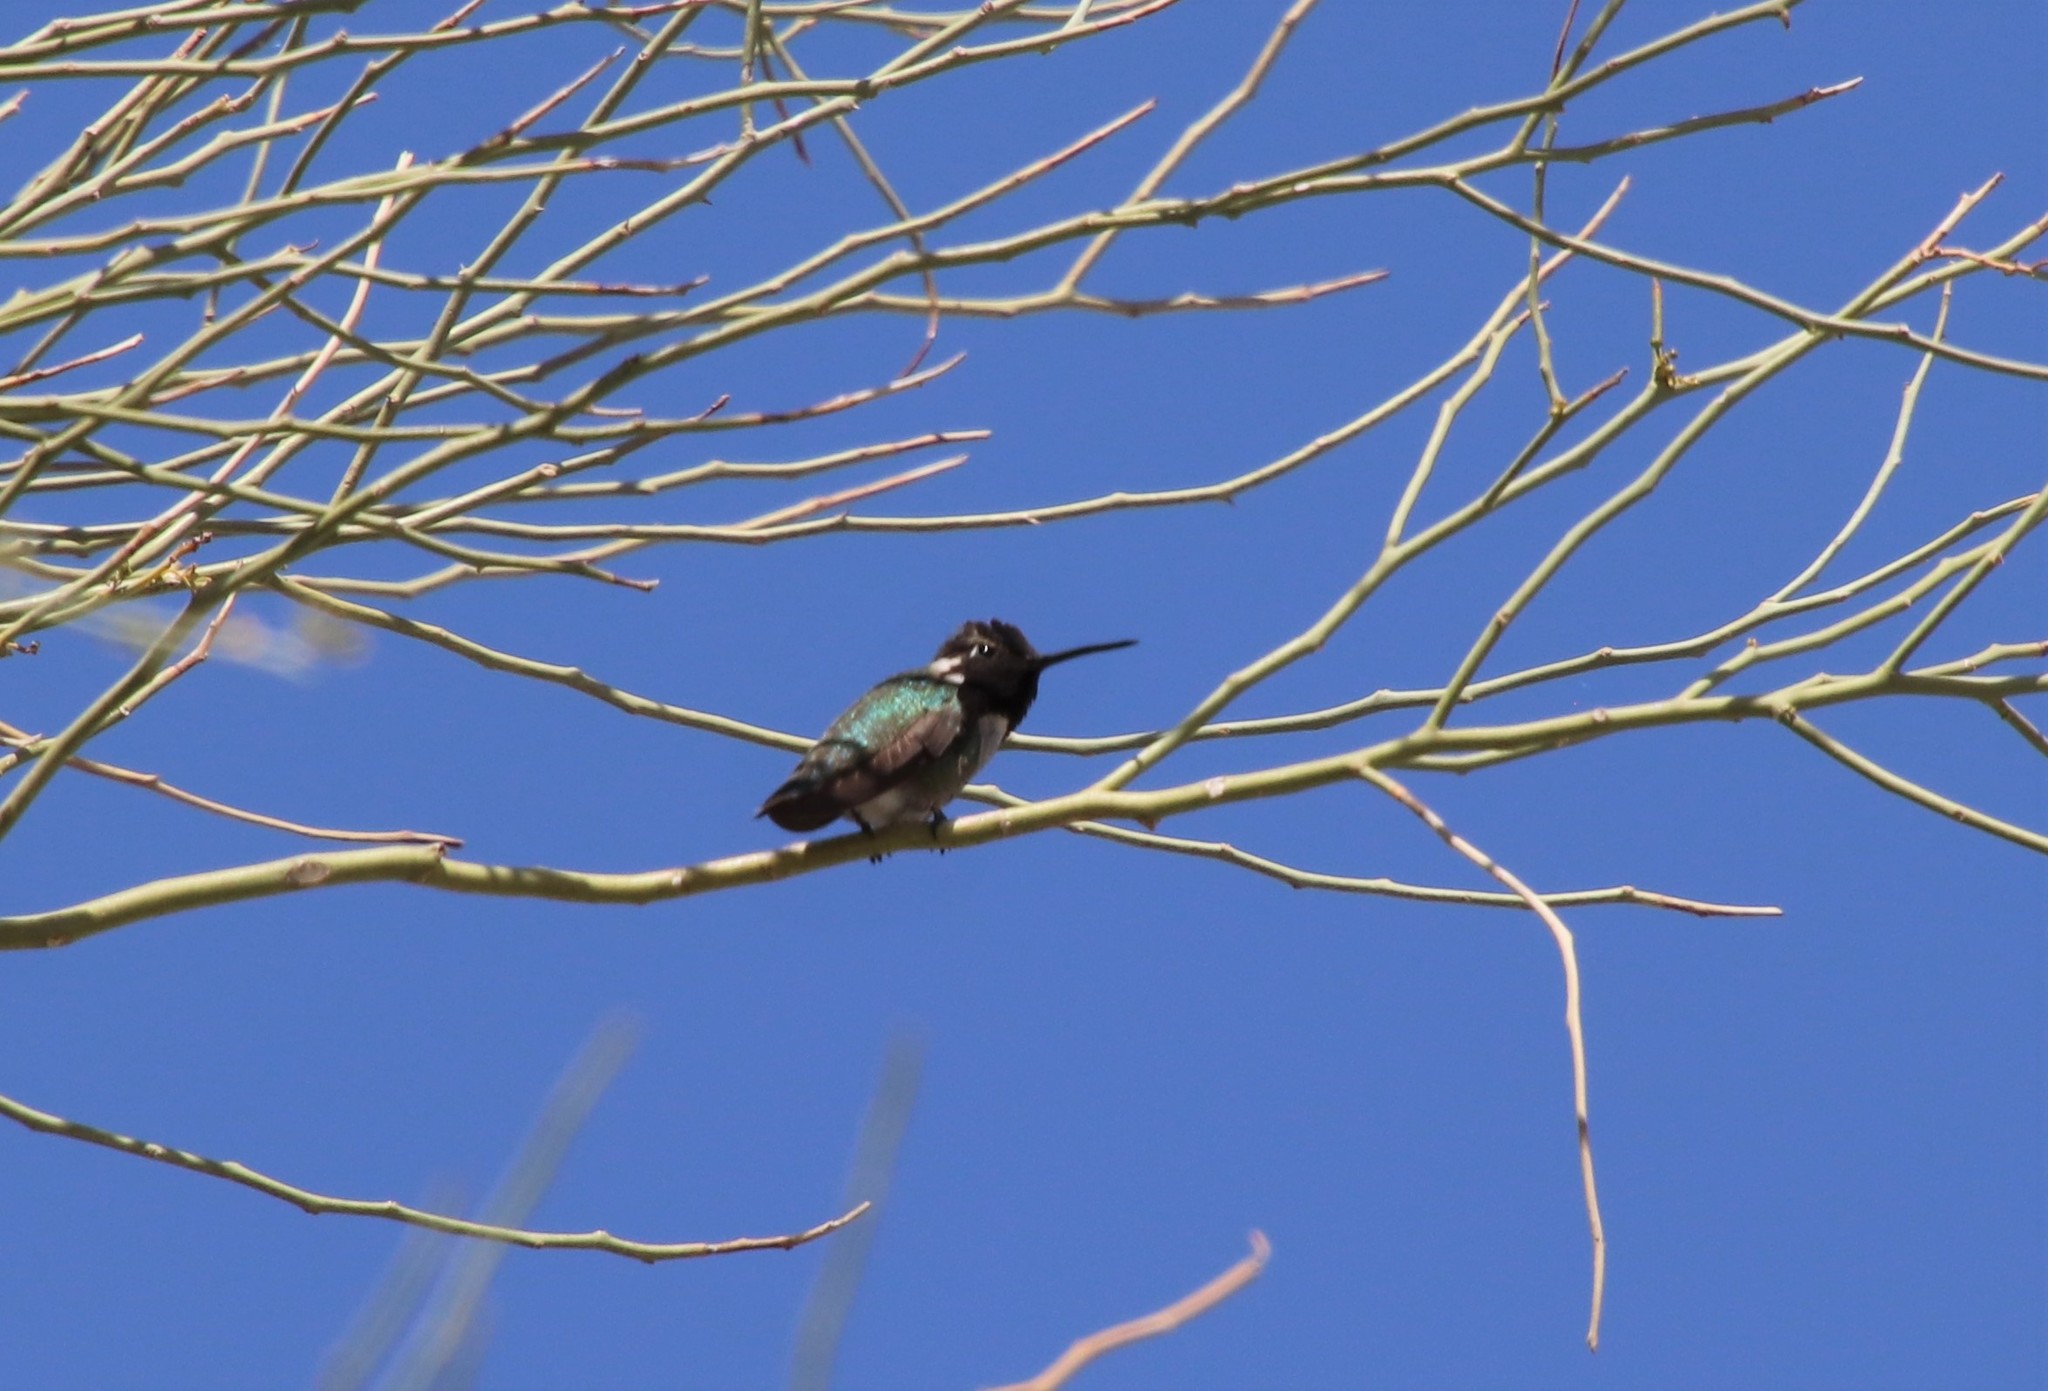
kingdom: Animalia
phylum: Chordata
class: Aves
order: Apodiformes
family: Trochilidae
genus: Calypte
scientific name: Calypte costae
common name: Costa's hummingbird
